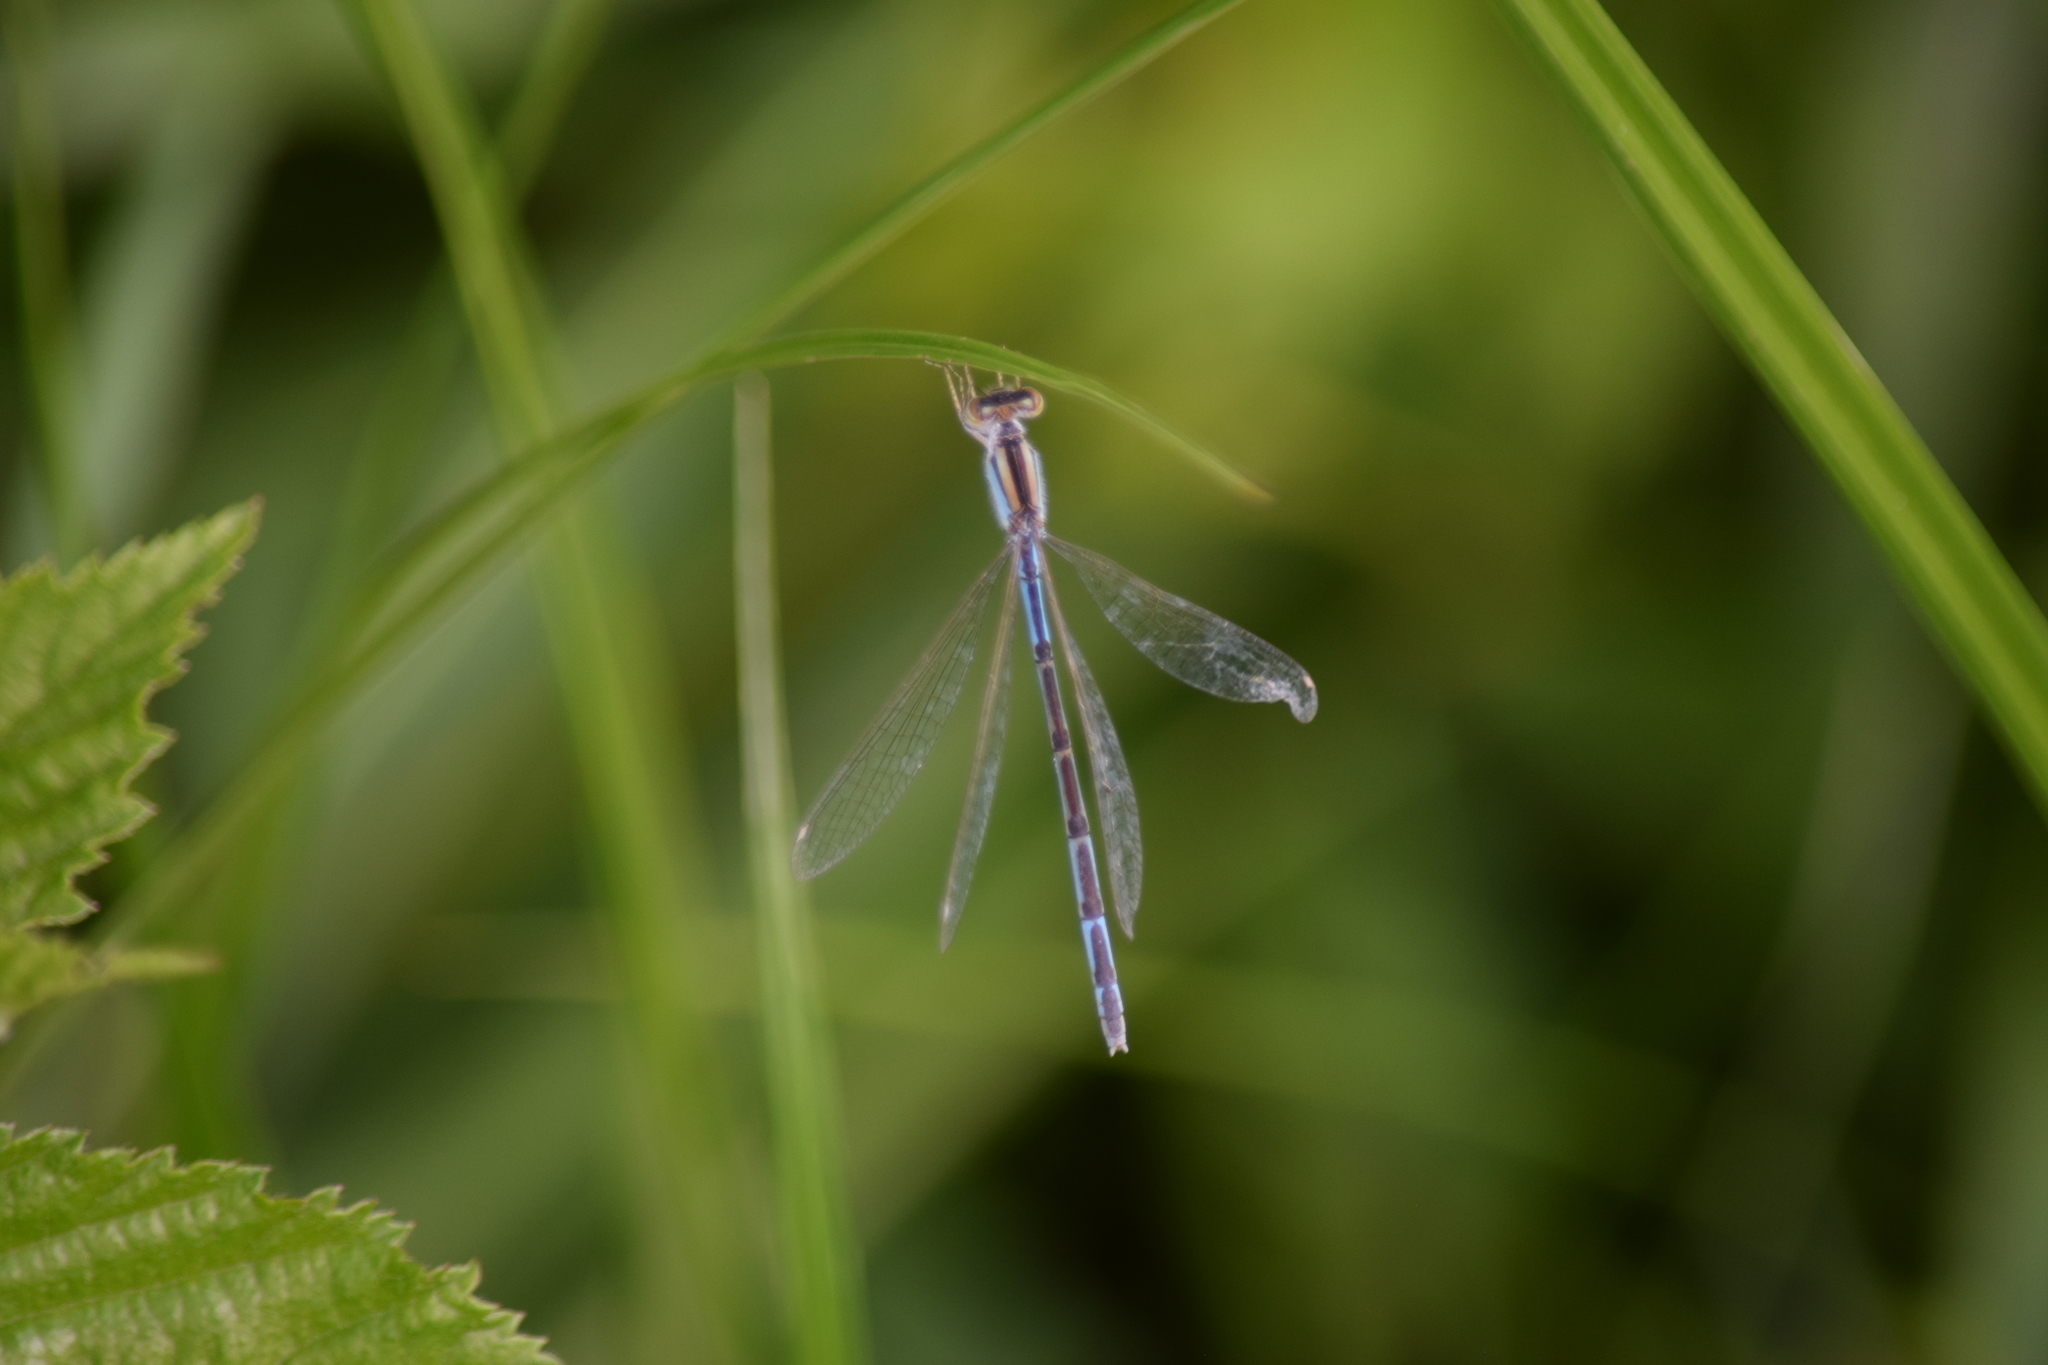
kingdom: Animalia
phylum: Arthropoda
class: Insecta
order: Odonata
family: Coenagrionidae
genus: Enallagma
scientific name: Enallagma
